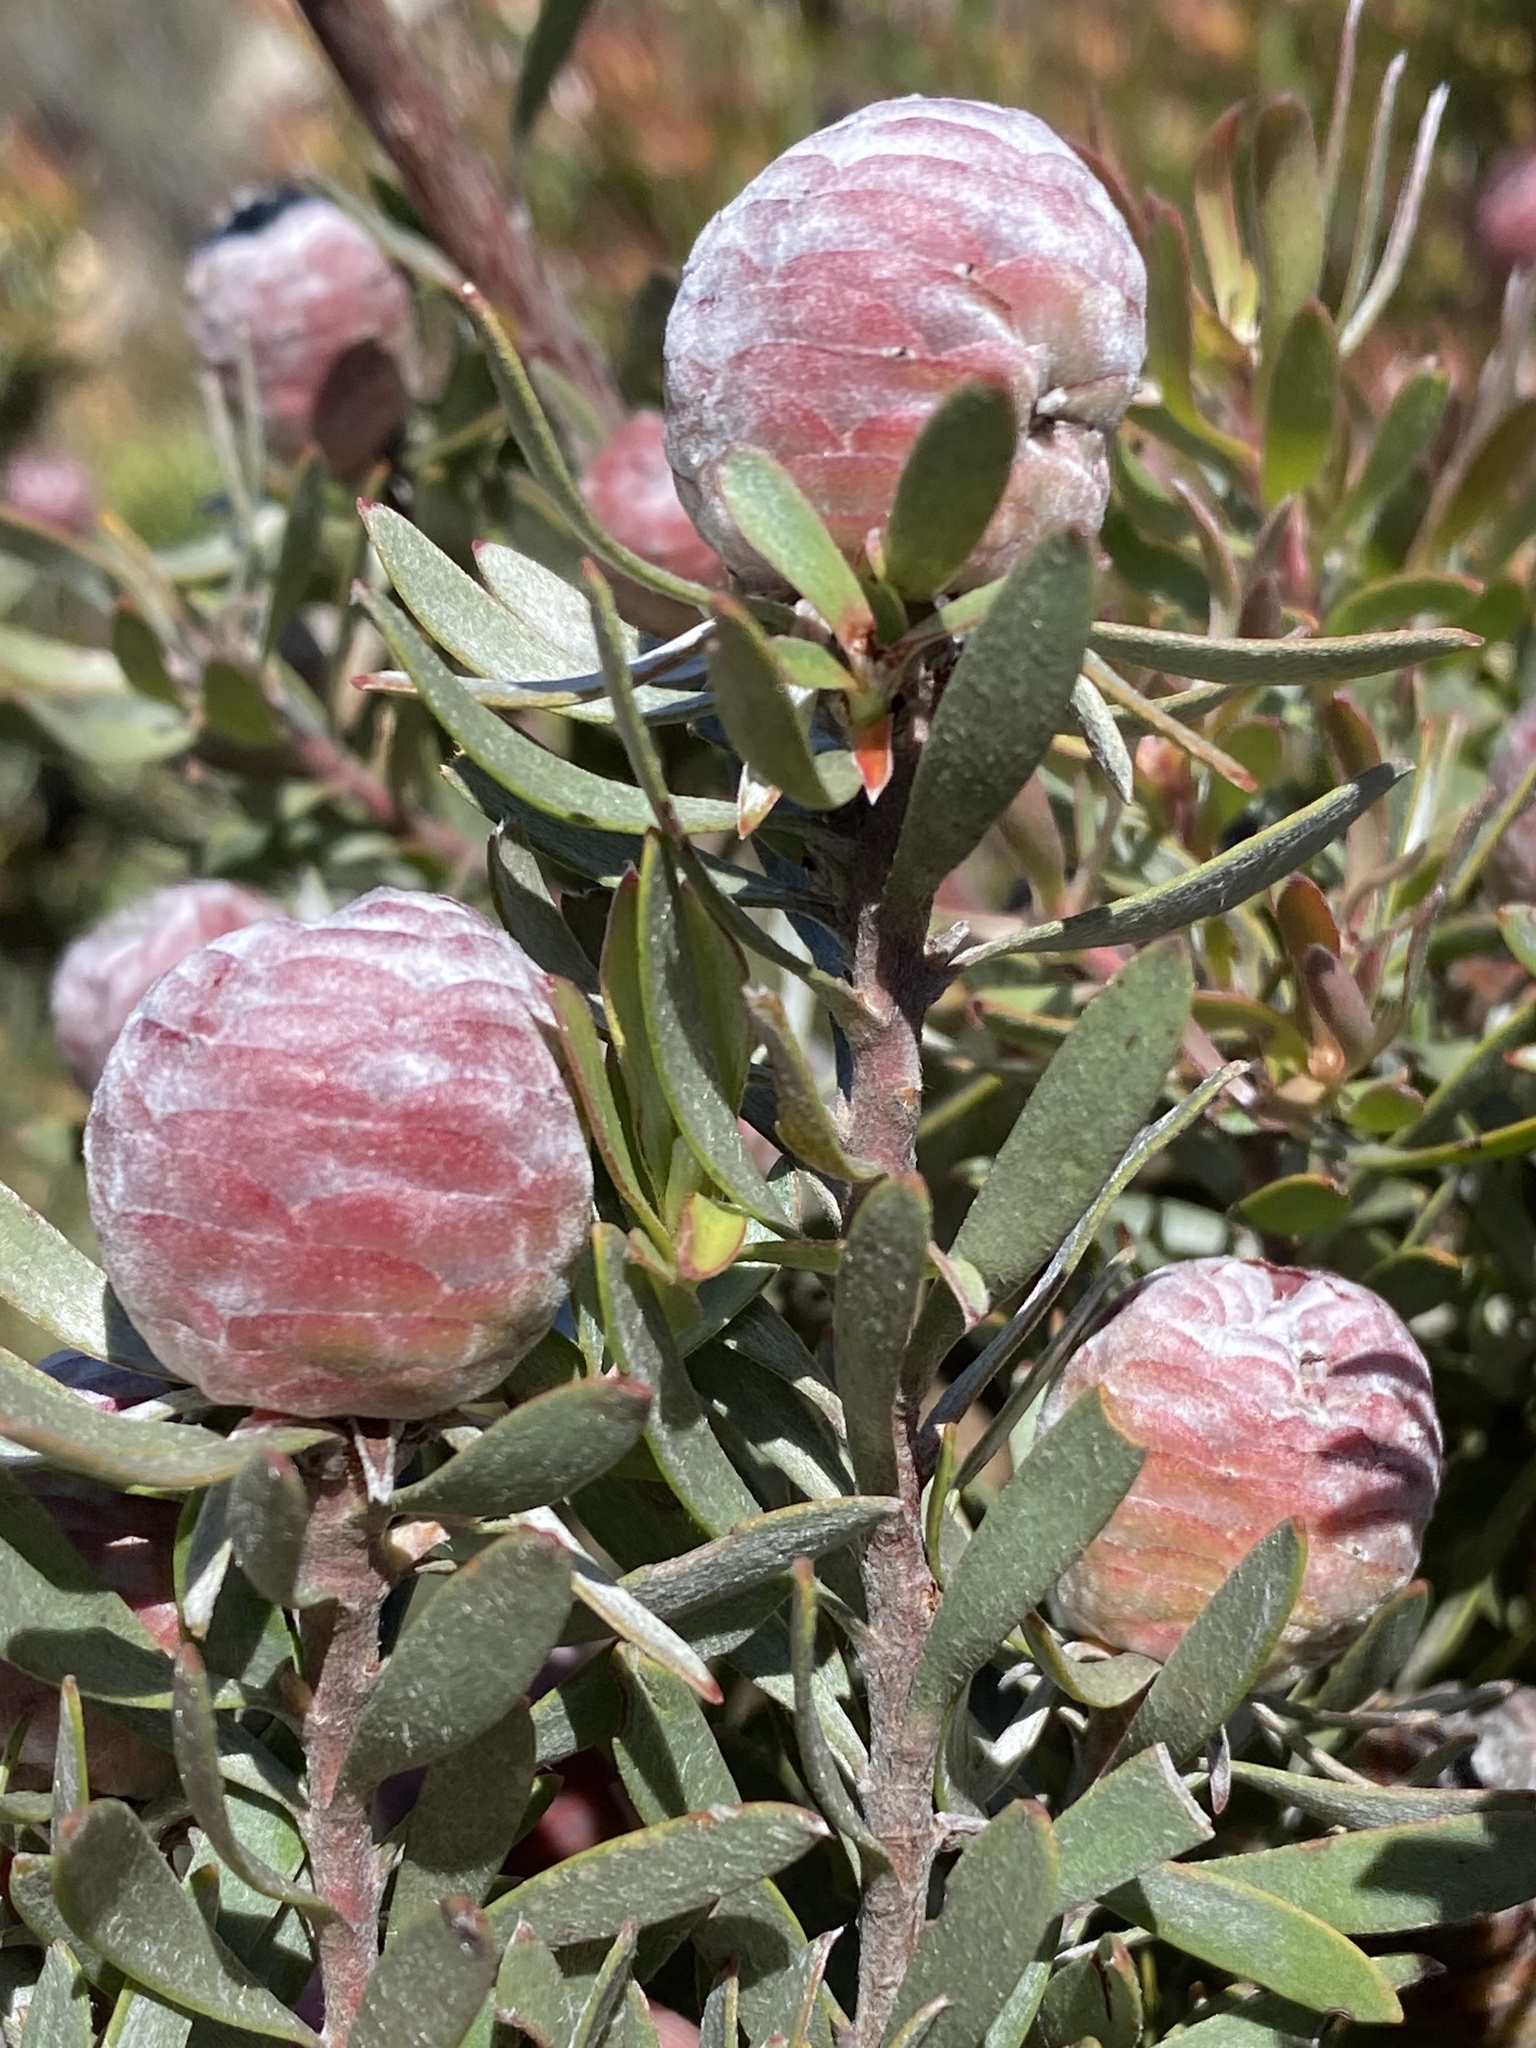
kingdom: Plantae
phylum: Tracheophyta
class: Magnoliopsida
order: Proteales
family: Proteaceae
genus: Leucadendron
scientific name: Leucadendron loeriense
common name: Loerie conebush
